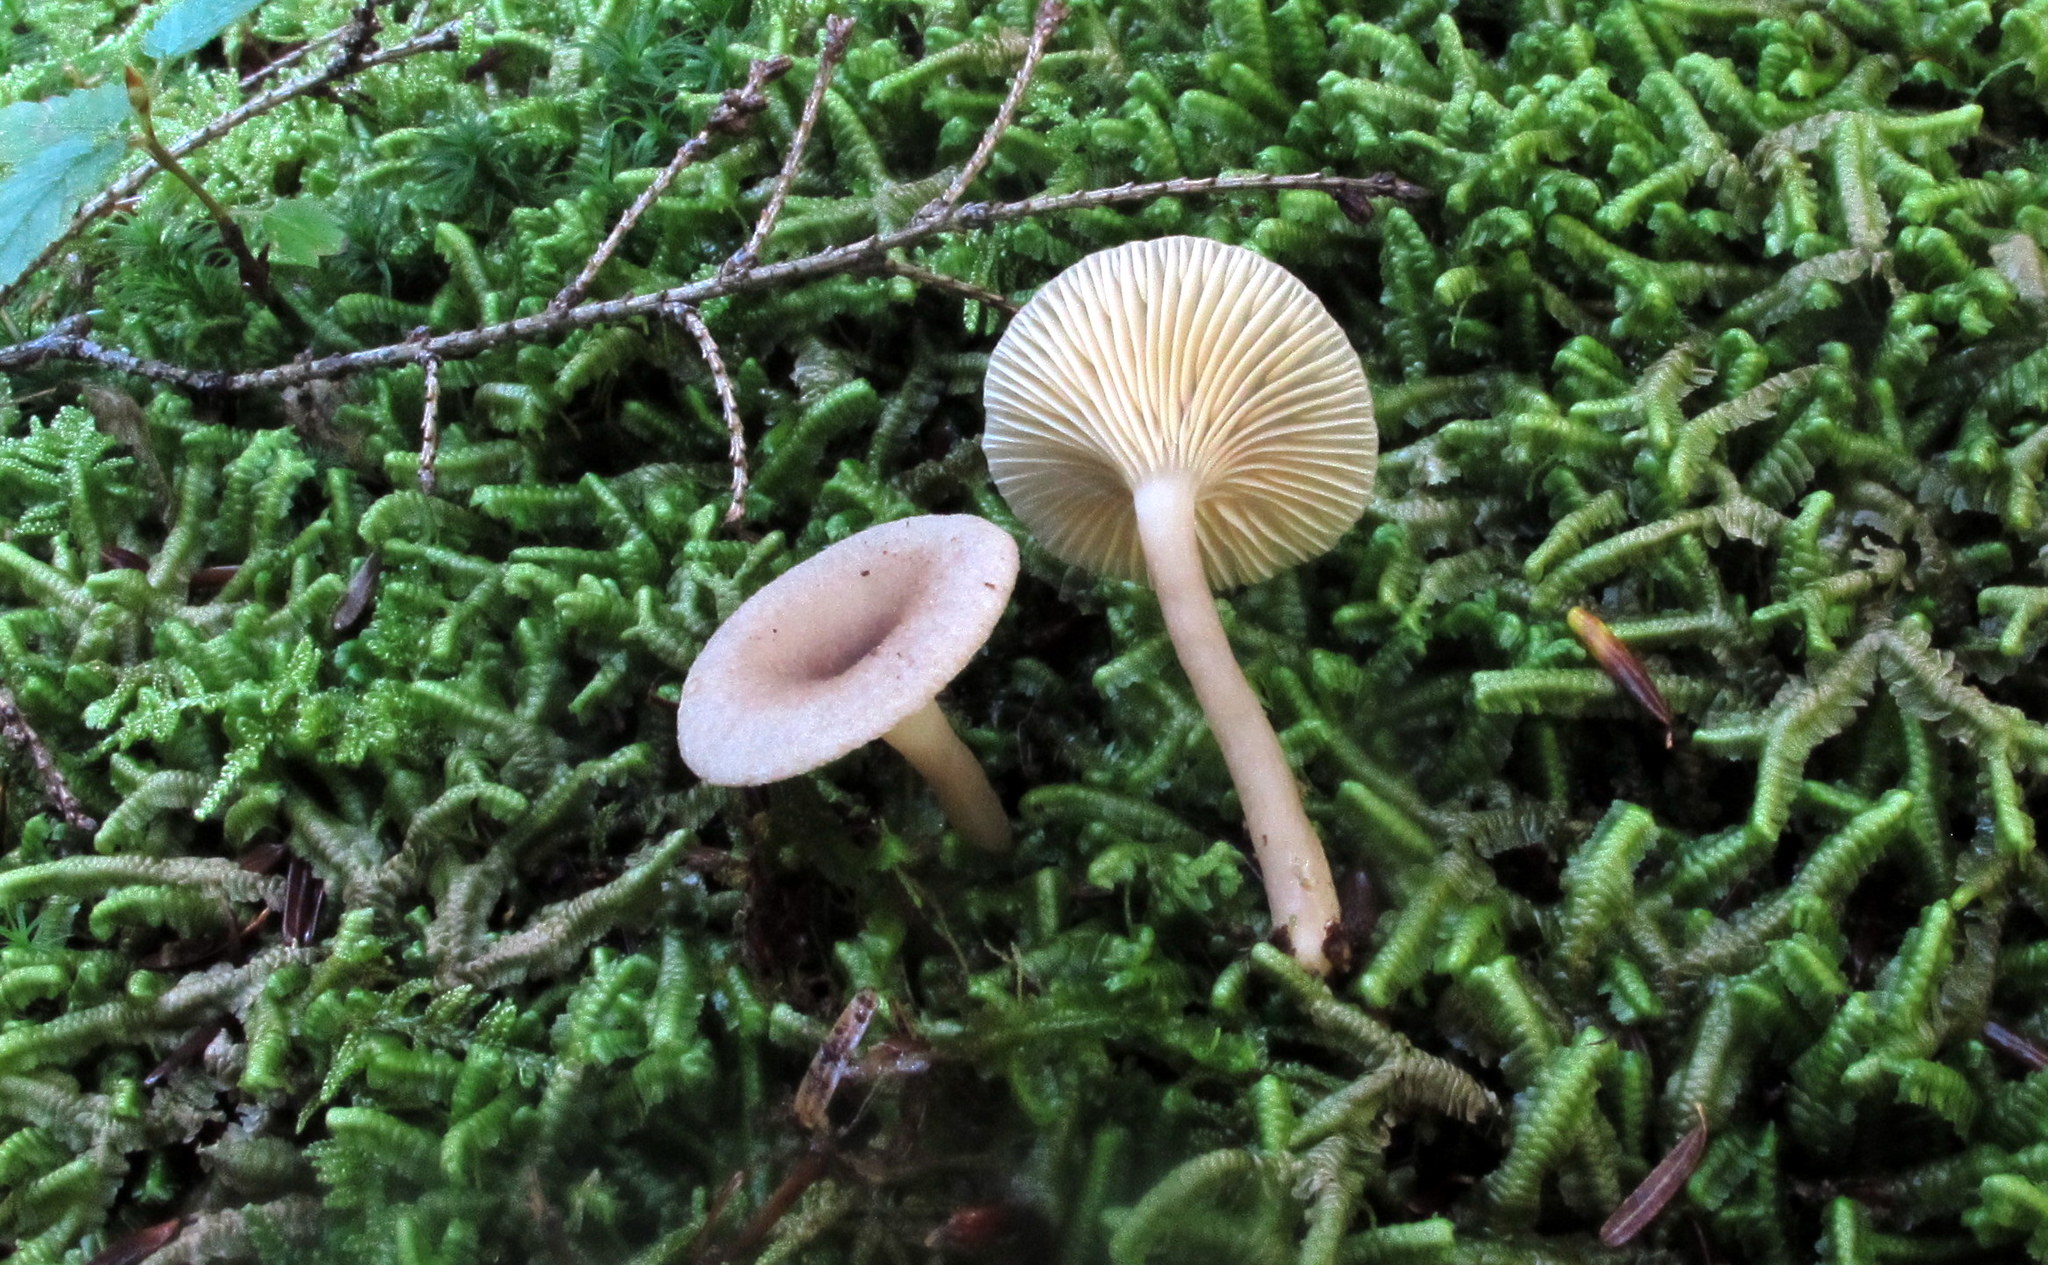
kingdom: Fungi
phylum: Basidiomycota
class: Agaricomycetes
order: Russulales
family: Russulaceae
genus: Lactarius
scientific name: Lactarius griseus
